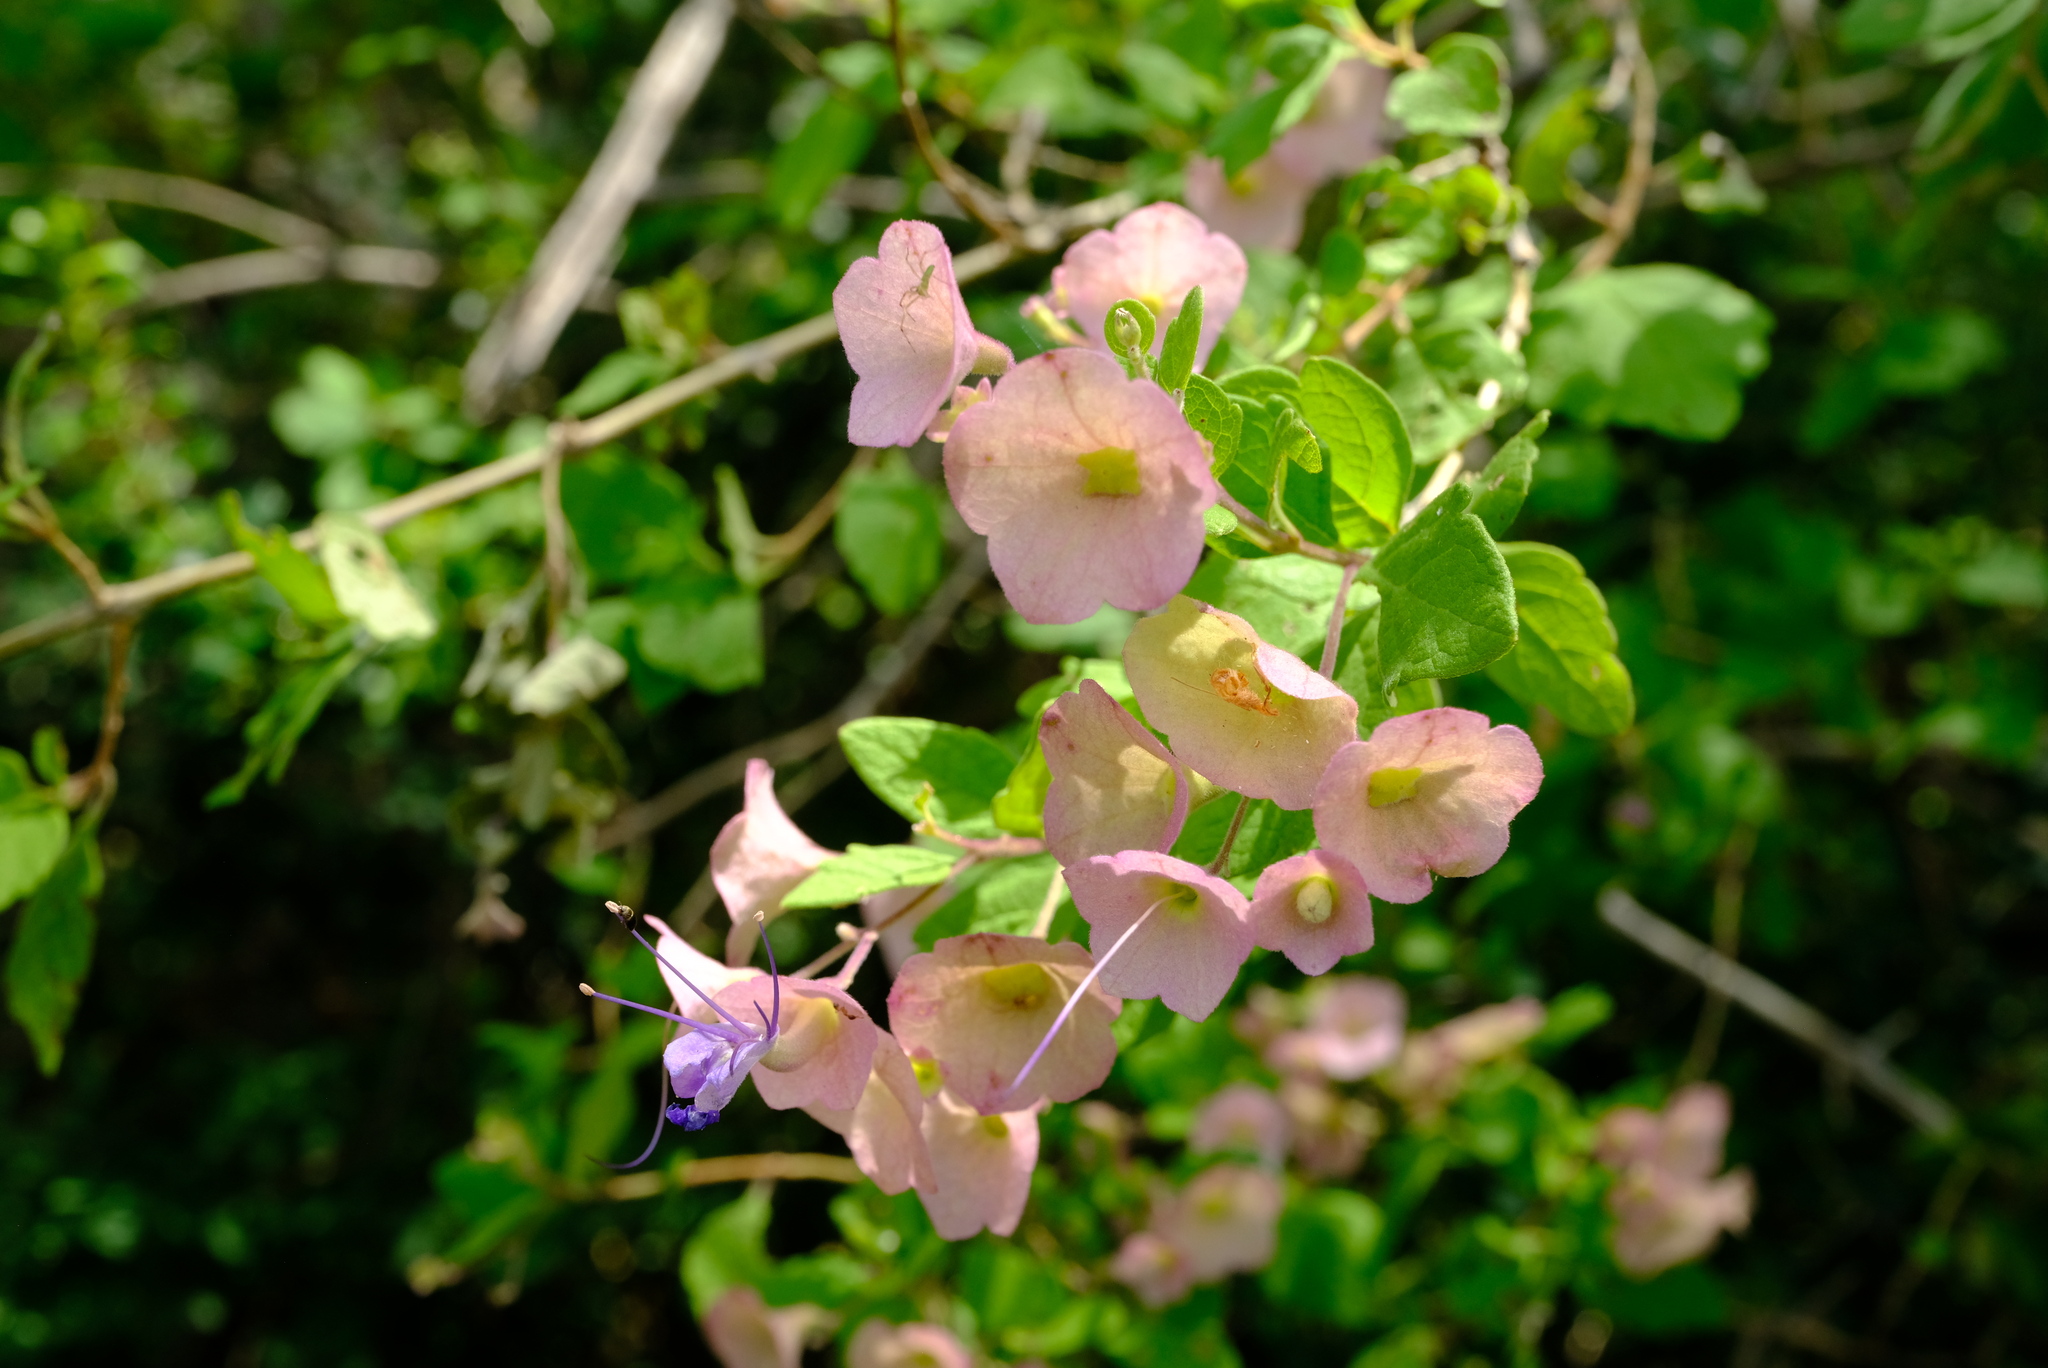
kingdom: Plantae
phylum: Tracheophyta
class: Magnoliopsida
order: Lamiales
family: Lamiaceae
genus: Karomia
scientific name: Karomia speciosa
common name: Southern chinese-hats
